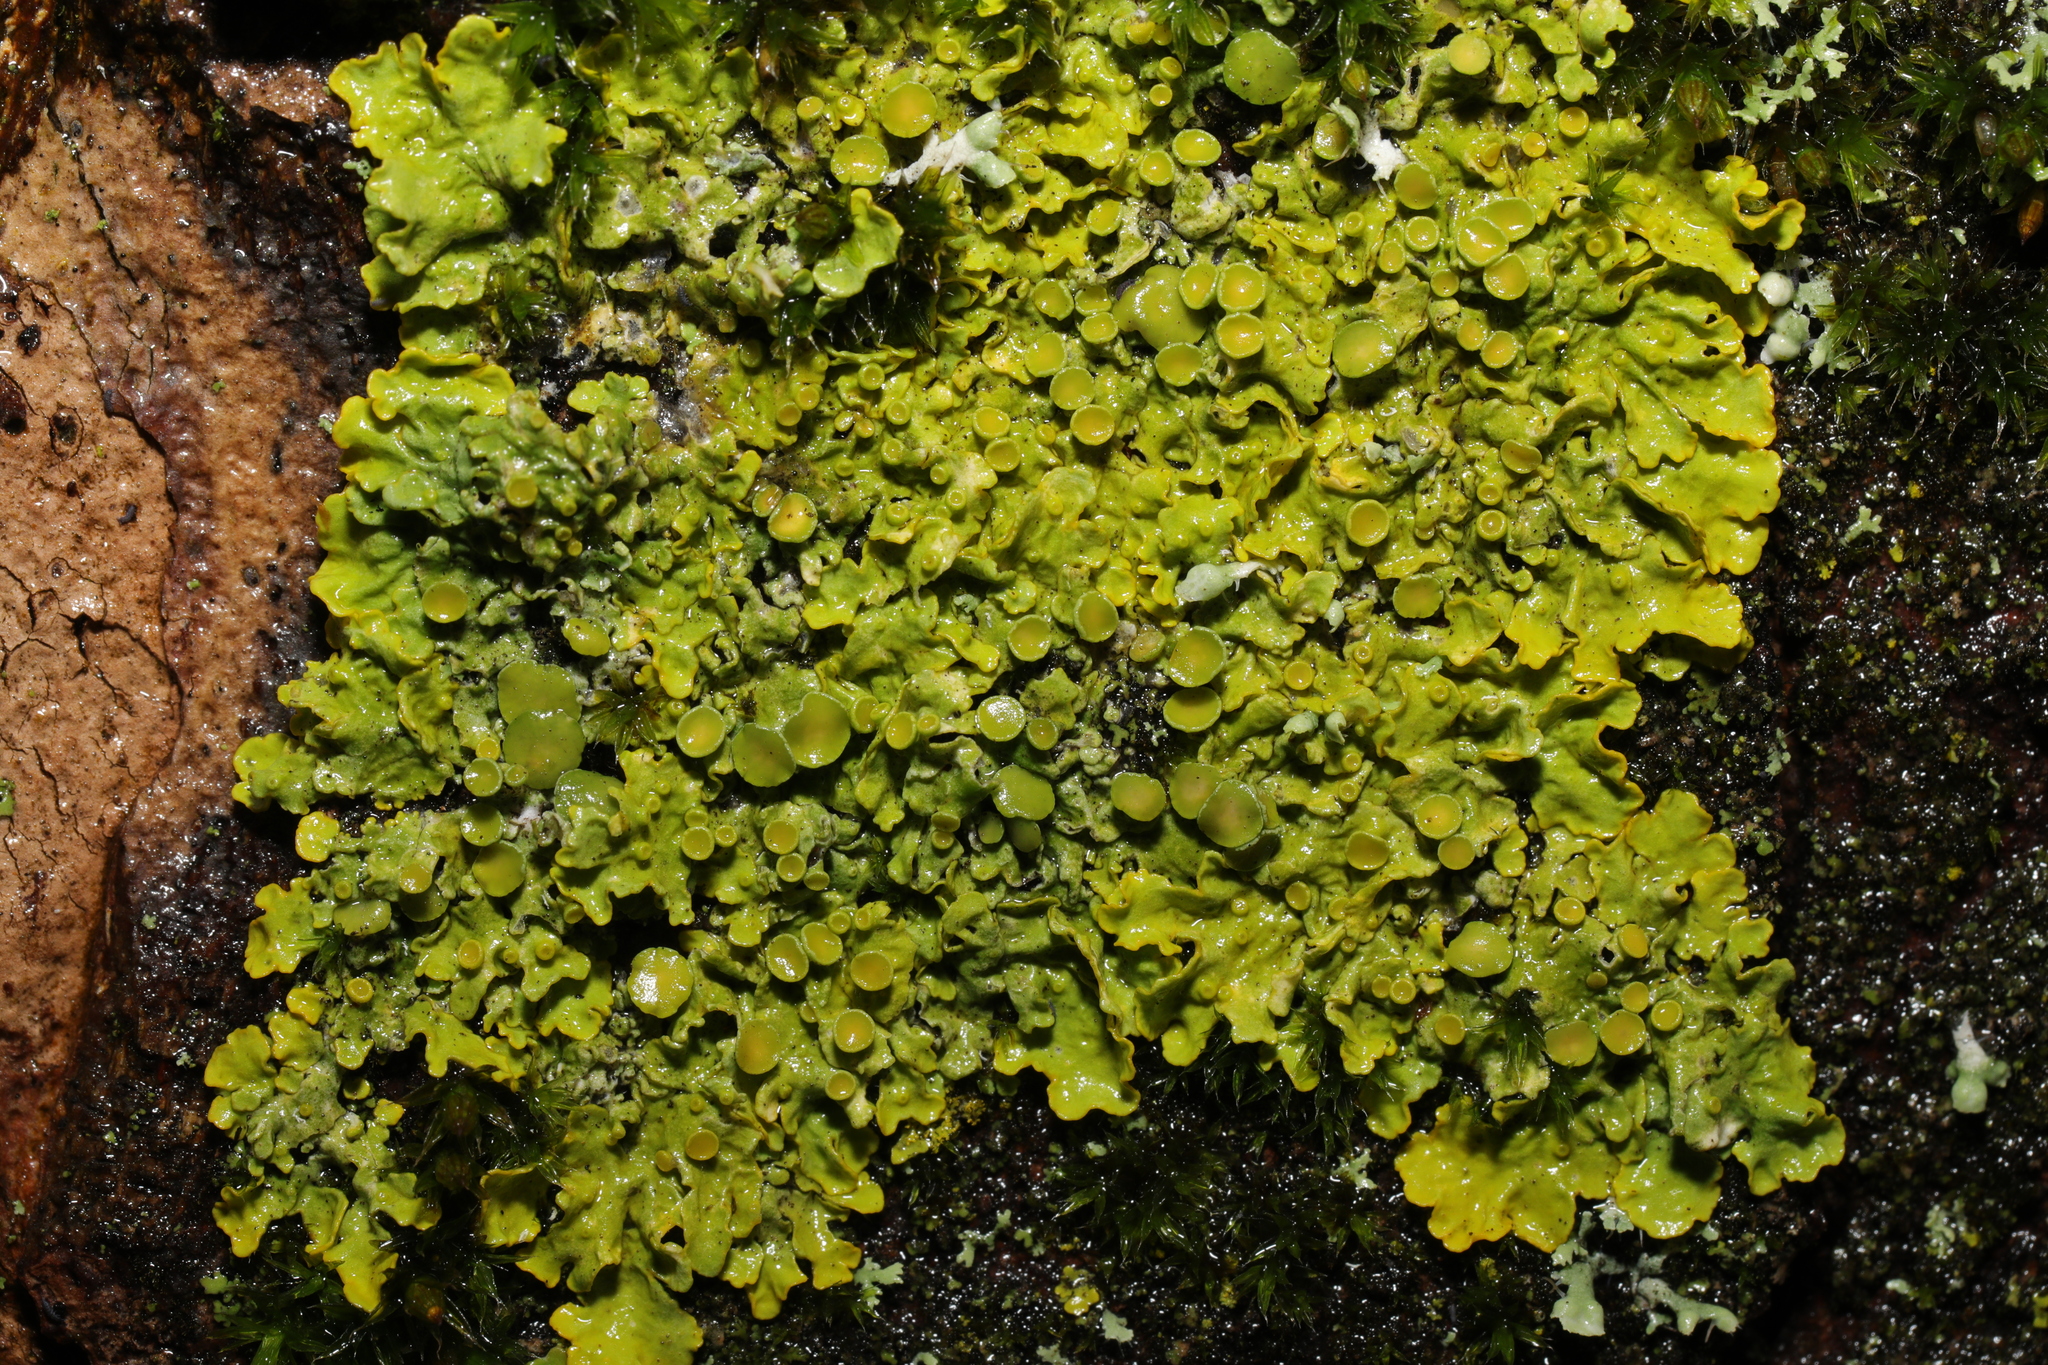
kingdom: Fungi
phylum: Ascomycota
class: Lecanoromycetes
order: Teloschistales
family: Teloschistaceae
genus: Xanthoria
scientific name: Xanthoria parietina
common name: Common orange lichen
